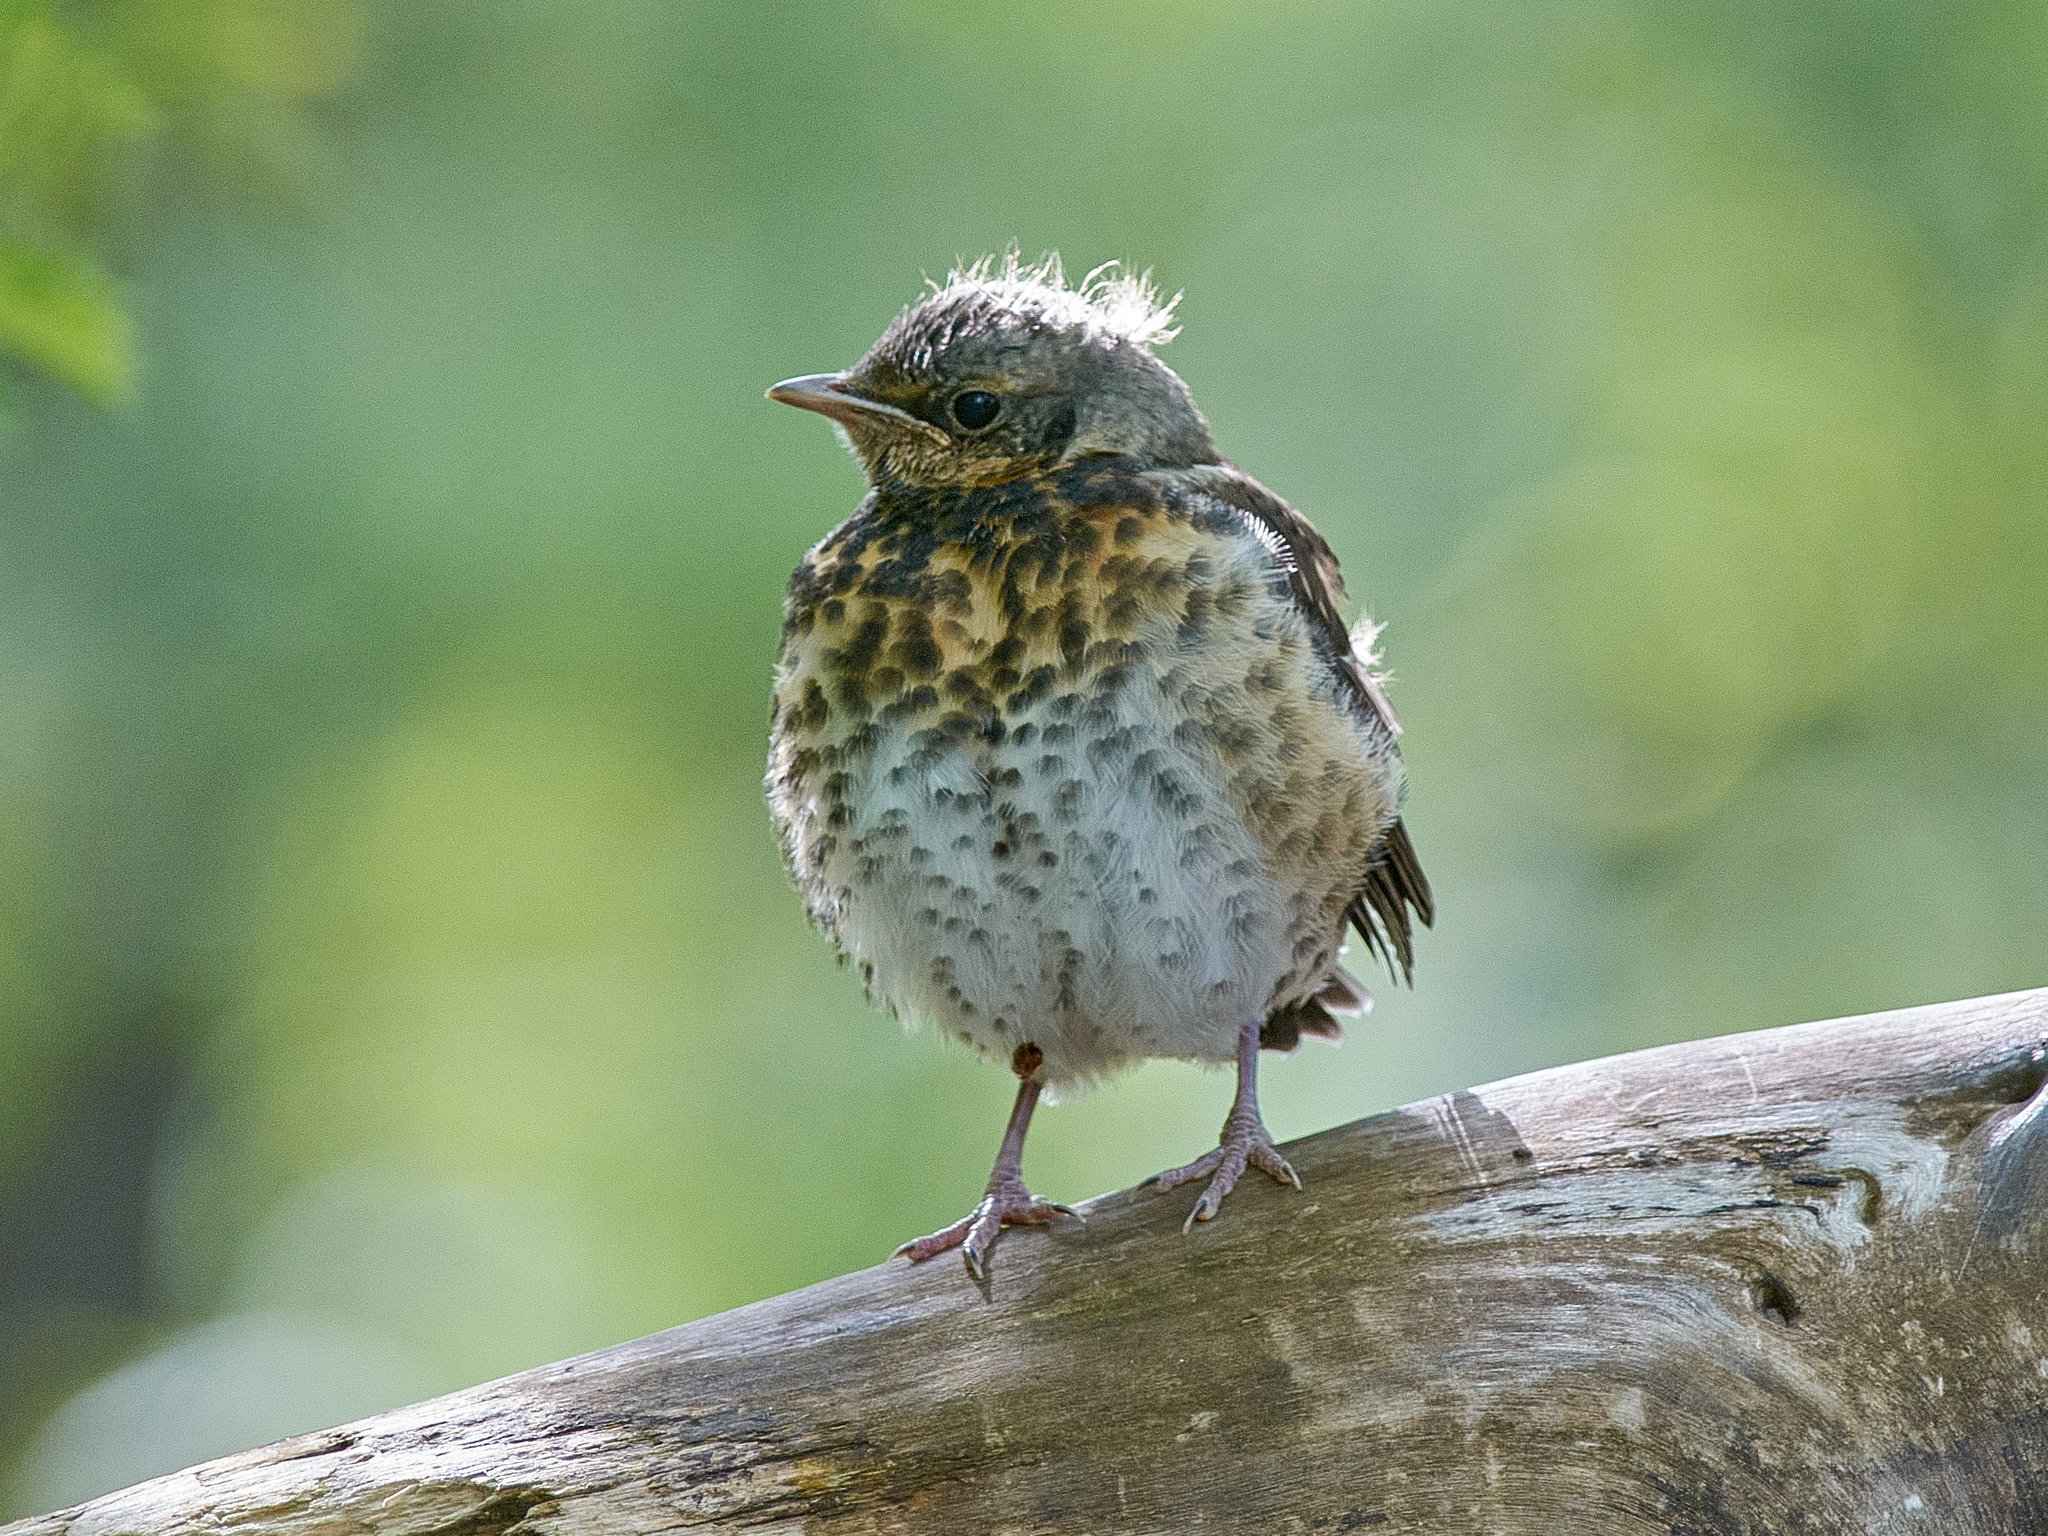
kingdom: Animalia
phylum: Chordata
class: Aves
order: Passeriformes
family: Turdidae
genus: Turdus
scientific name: Turdus pilaris
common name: Fieldfare
